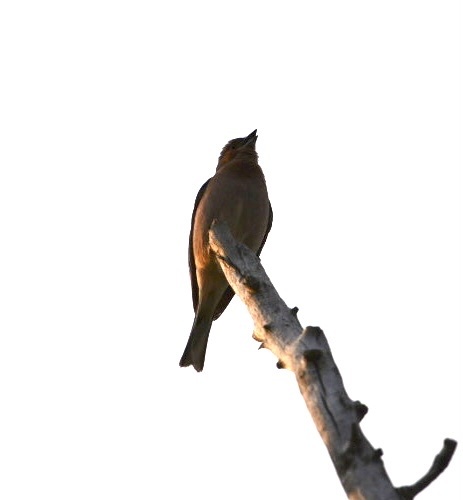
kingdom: Animalia
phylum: Chordata
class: Aves
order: Passeriformes
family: Fringillidae
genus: Fringilla
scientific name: Fringilla coelebs
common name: Common chaffinch
